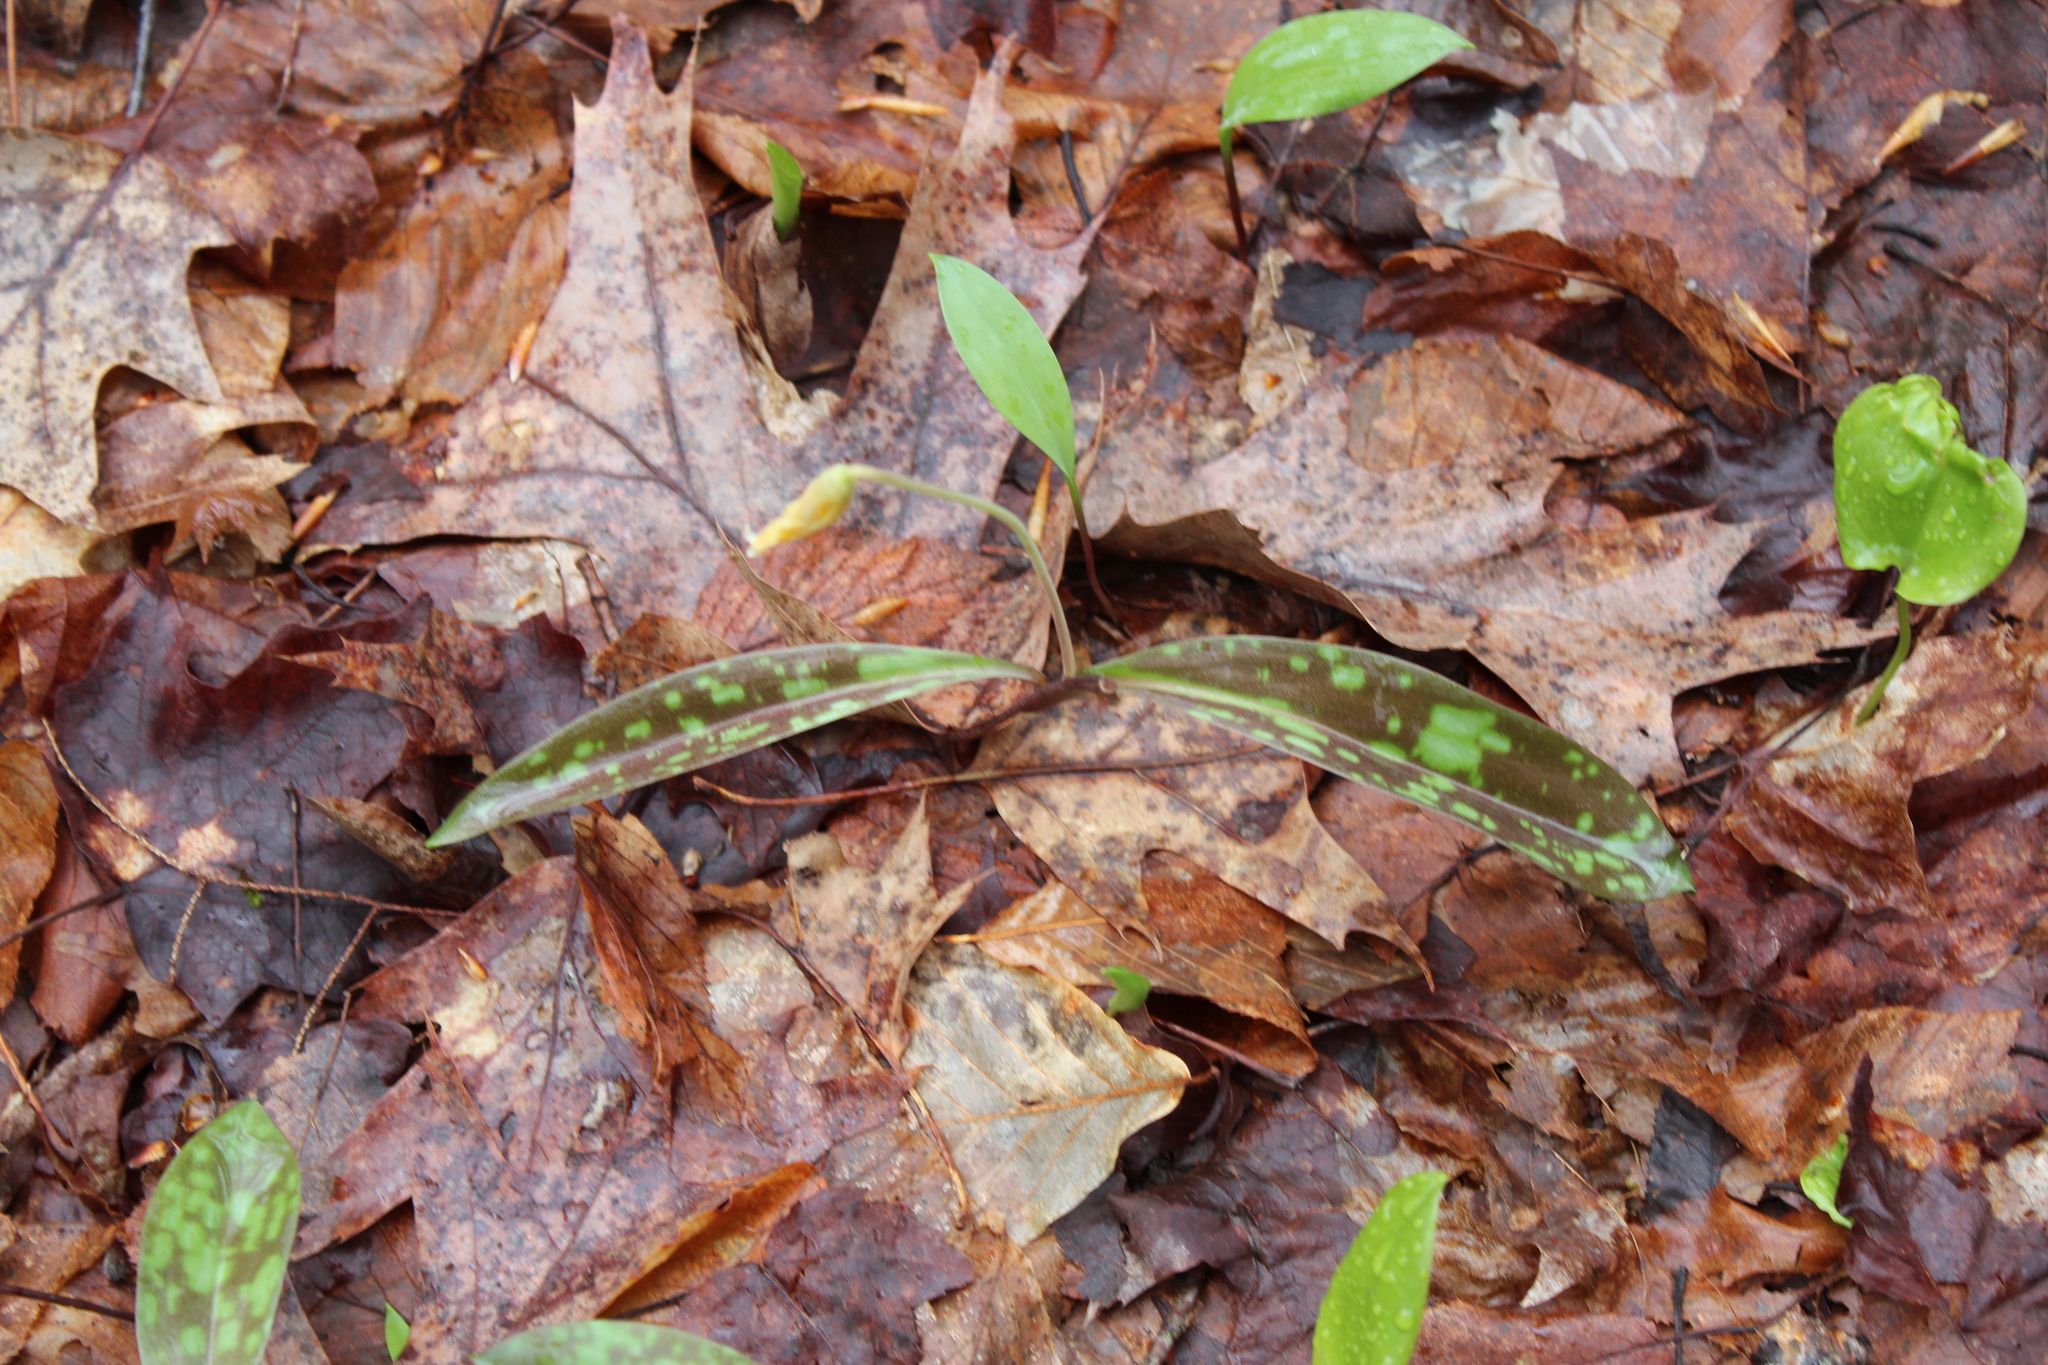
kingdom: Plantae
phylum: Tracheophyta
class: Liliopsida
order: Liliales
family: Liliaceae
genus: Erythronium
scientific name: Erythronium americanum
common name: Yellow adder's-tongue
